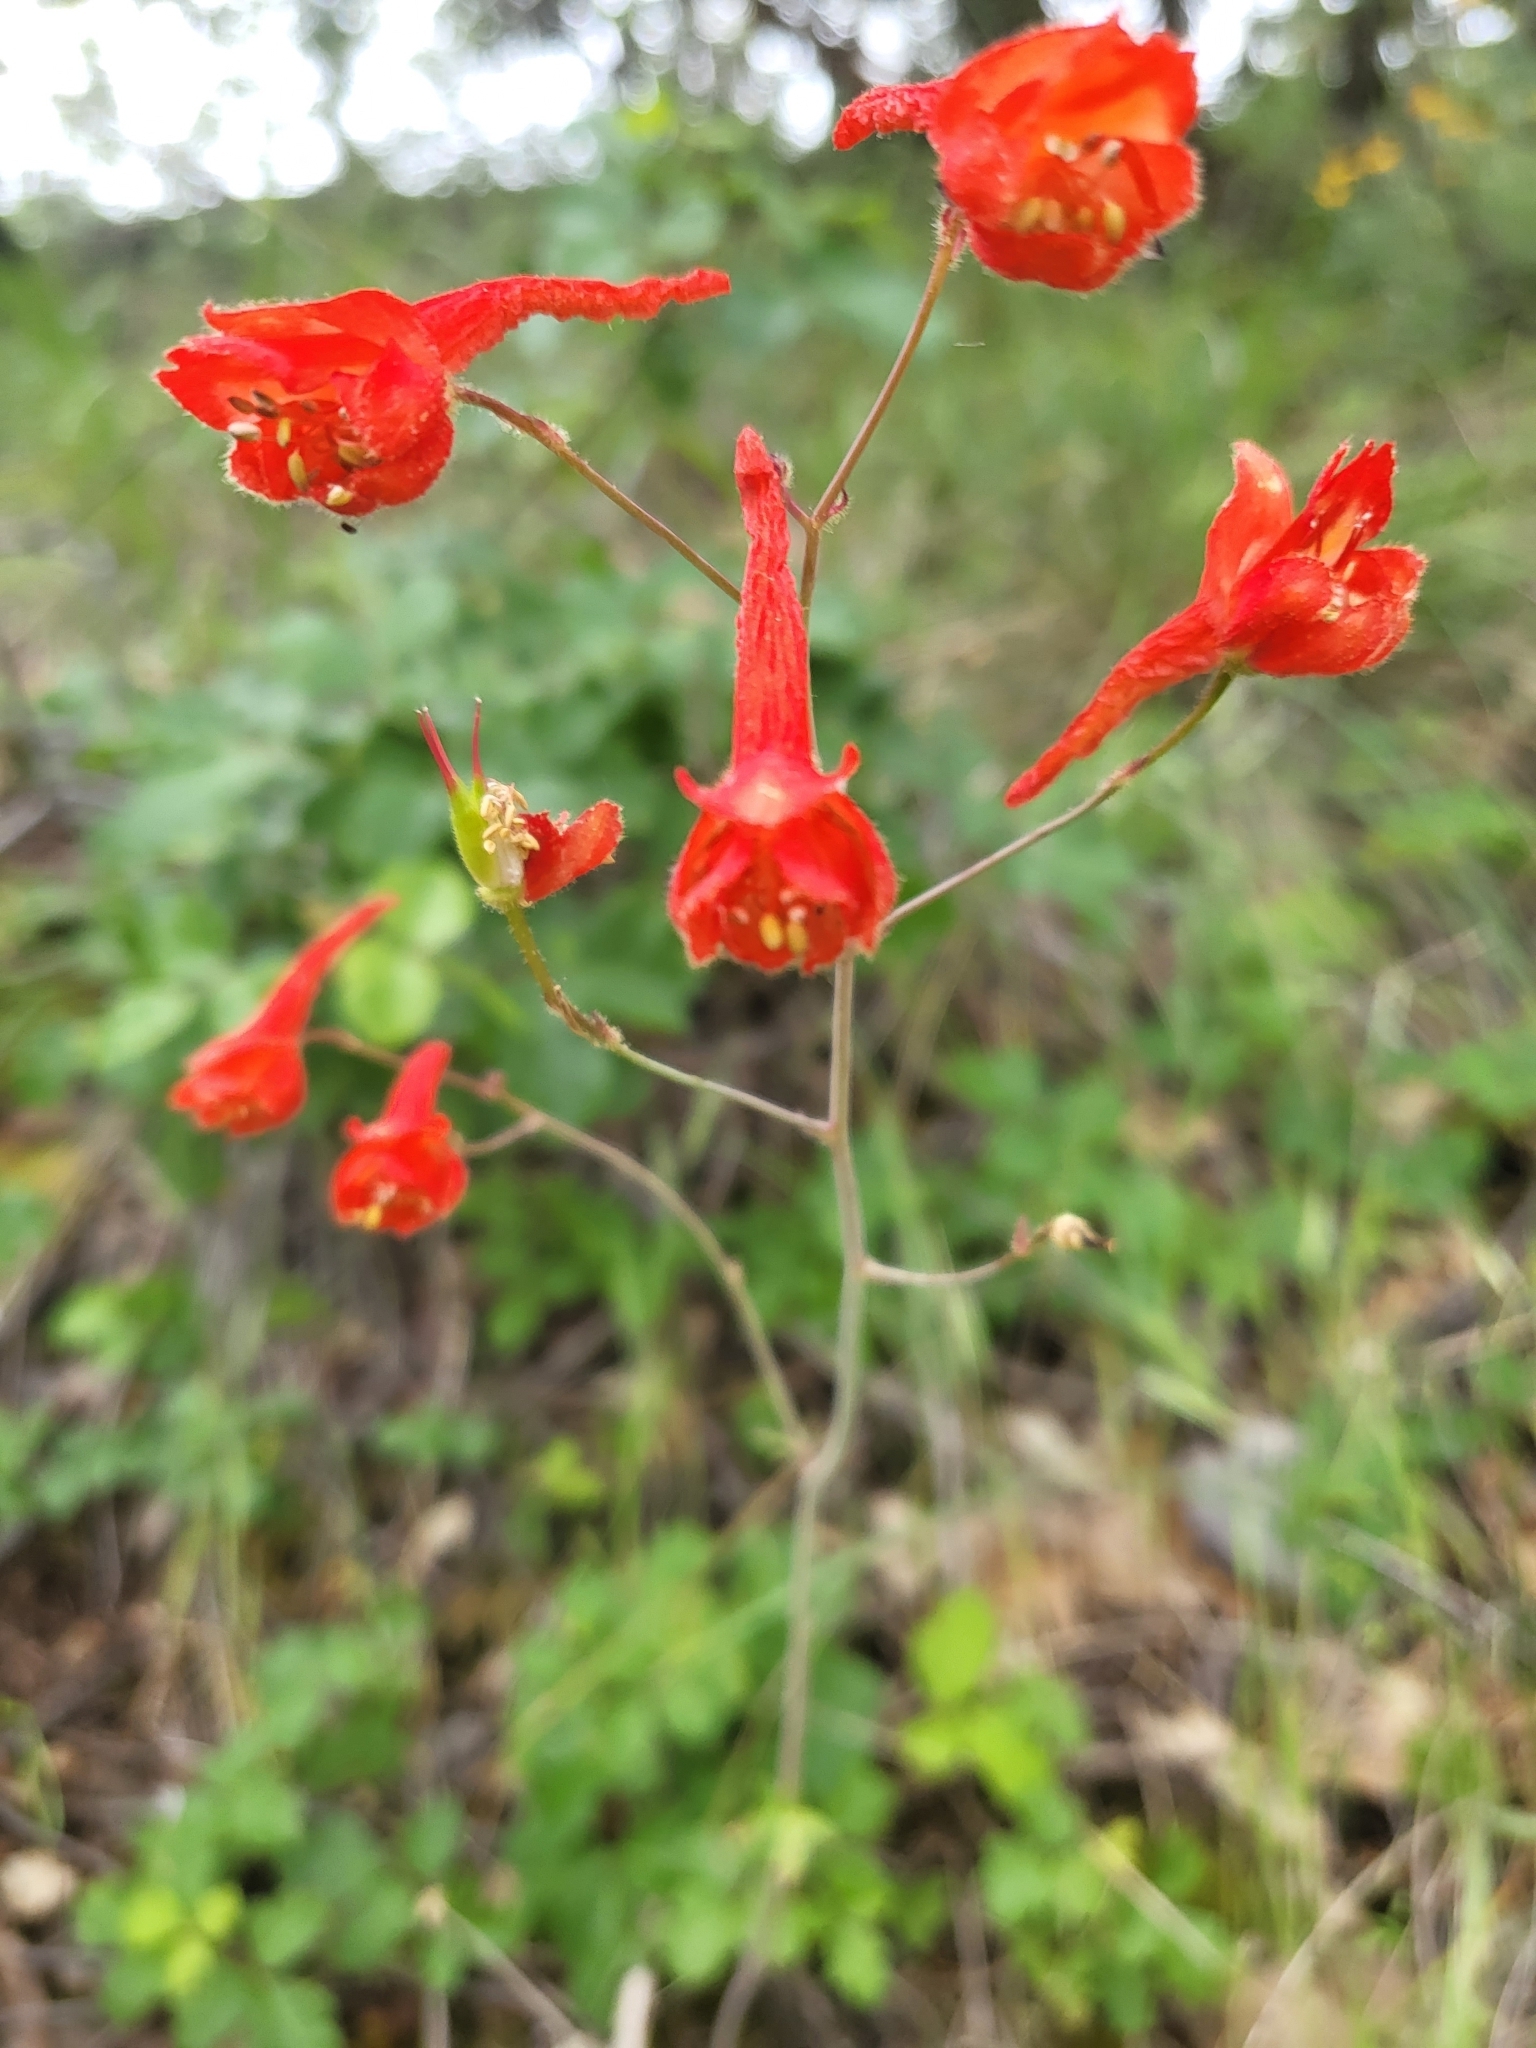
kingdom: Plantae
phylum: Tracheophyta
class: Magnoliopsida
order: Ranunculales
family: Ranunculaceae
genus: Delphinium
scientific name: Delphinium nudicaule
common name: Red larkspur
